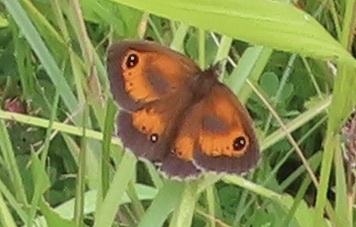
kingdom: Animalia
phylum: Arthropoda
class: Insecta
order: Lepidoptera
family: Nymphalidae
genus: Pyronia
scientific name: Pyronia tithonus
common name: Gatekeeper
